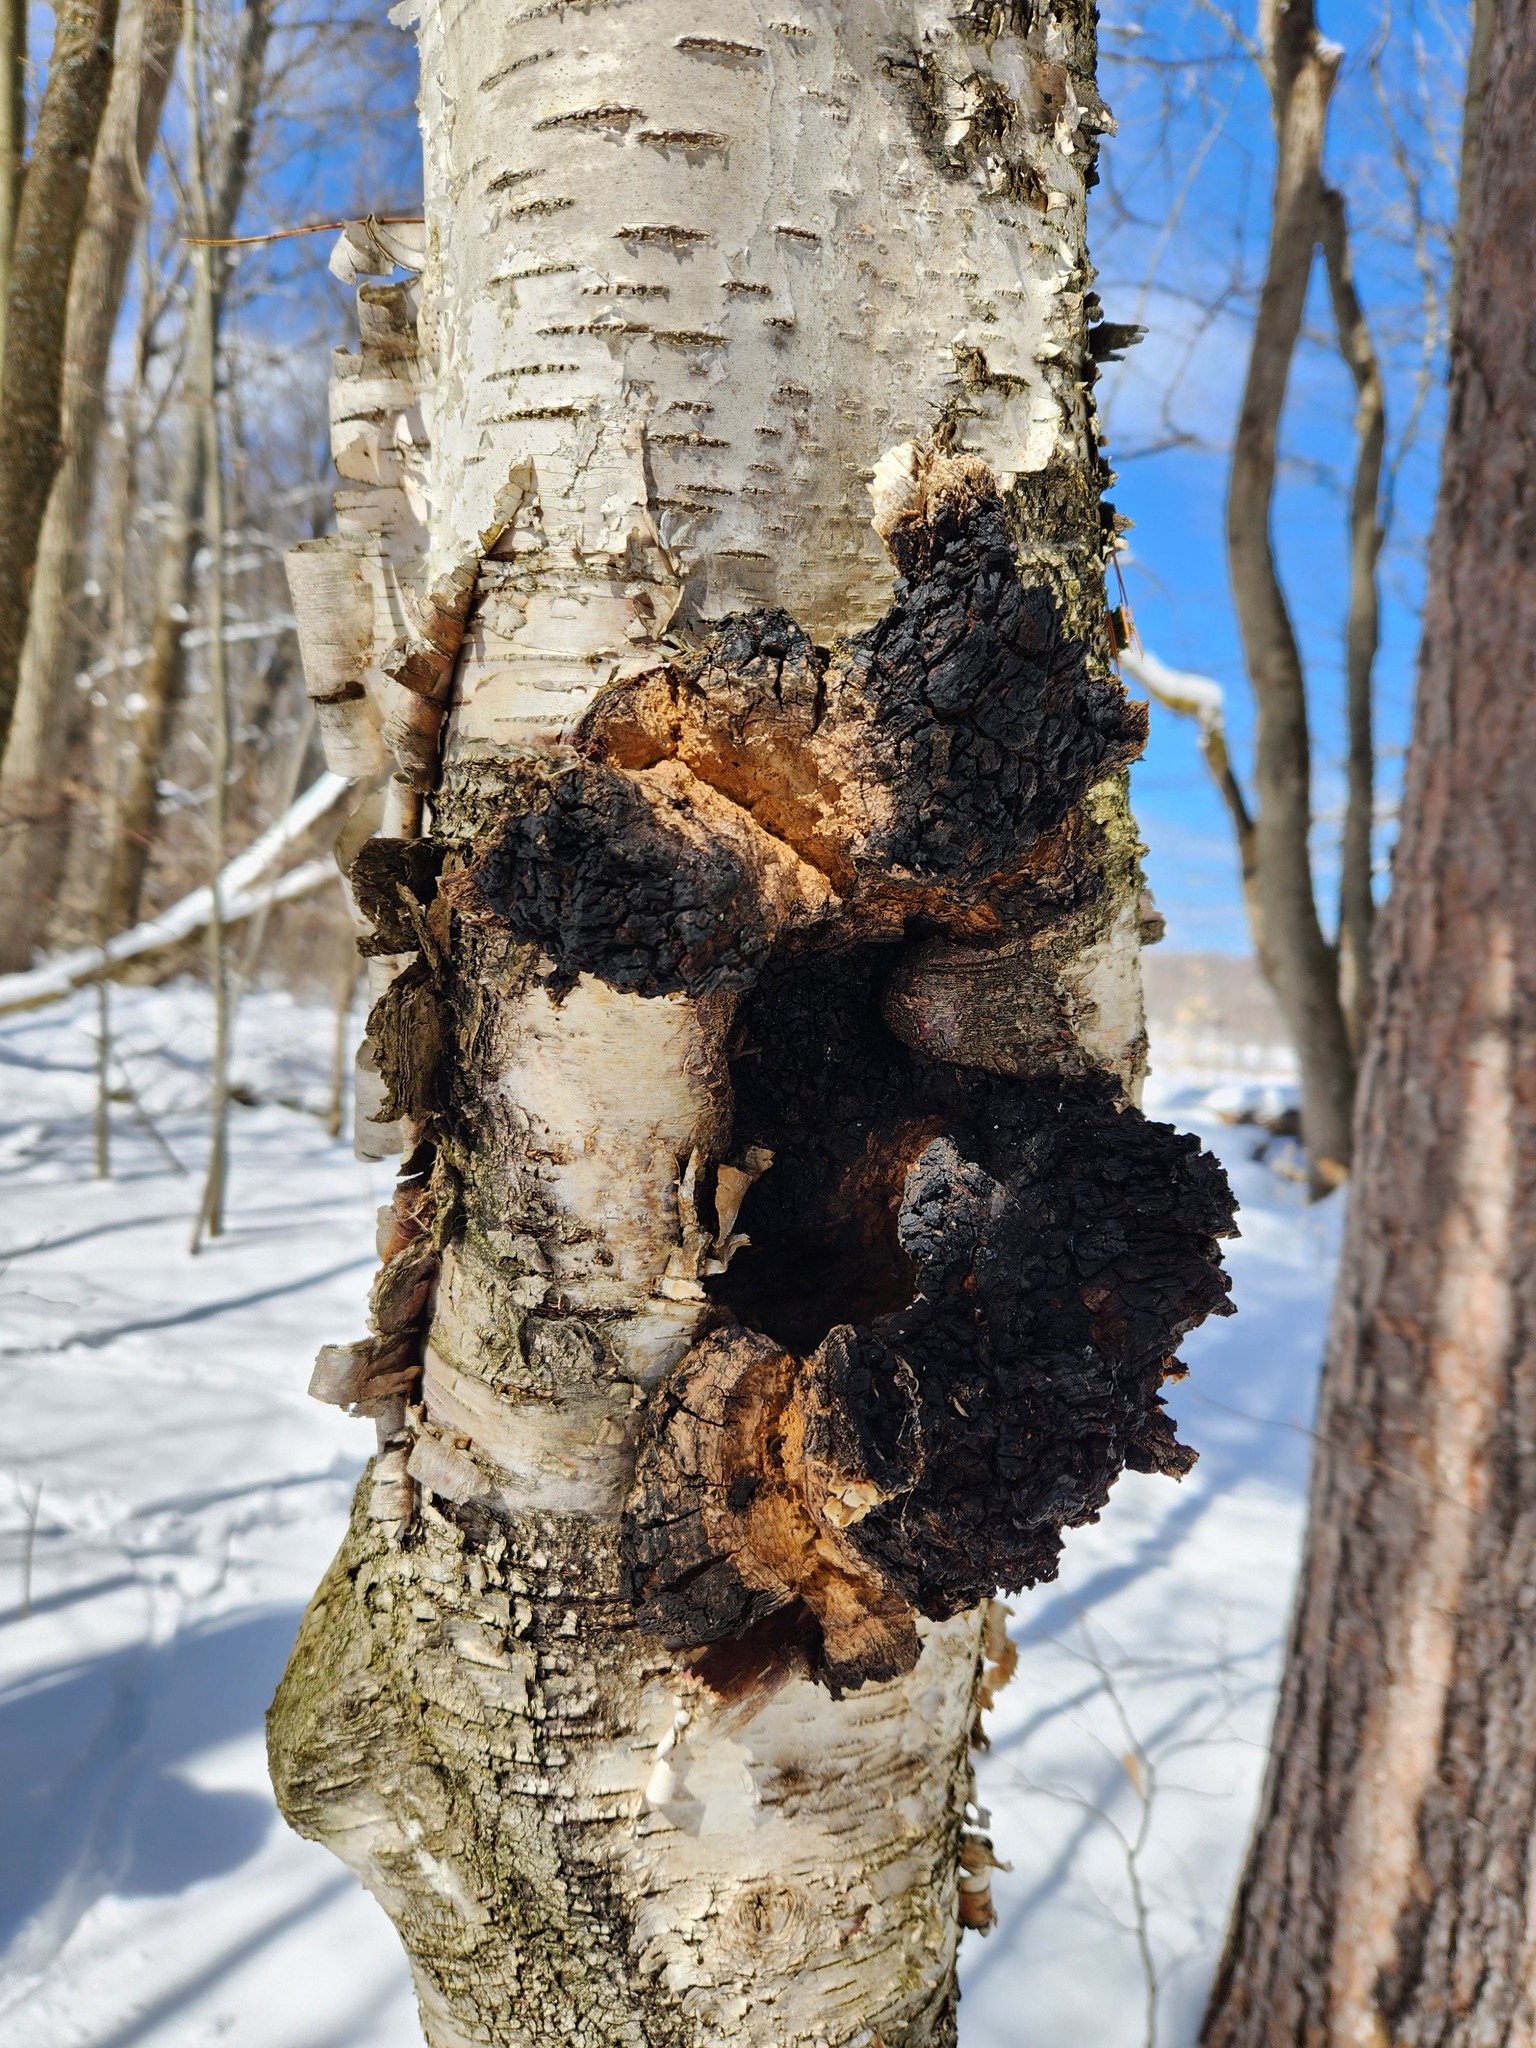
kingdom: Fungi
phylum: Basidiomycota
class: Agaricomycetes
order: Hymenochaetales
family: Hymenochaetaceae
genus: Inonotus
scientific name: Inonotus obliquus
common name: Chaga
